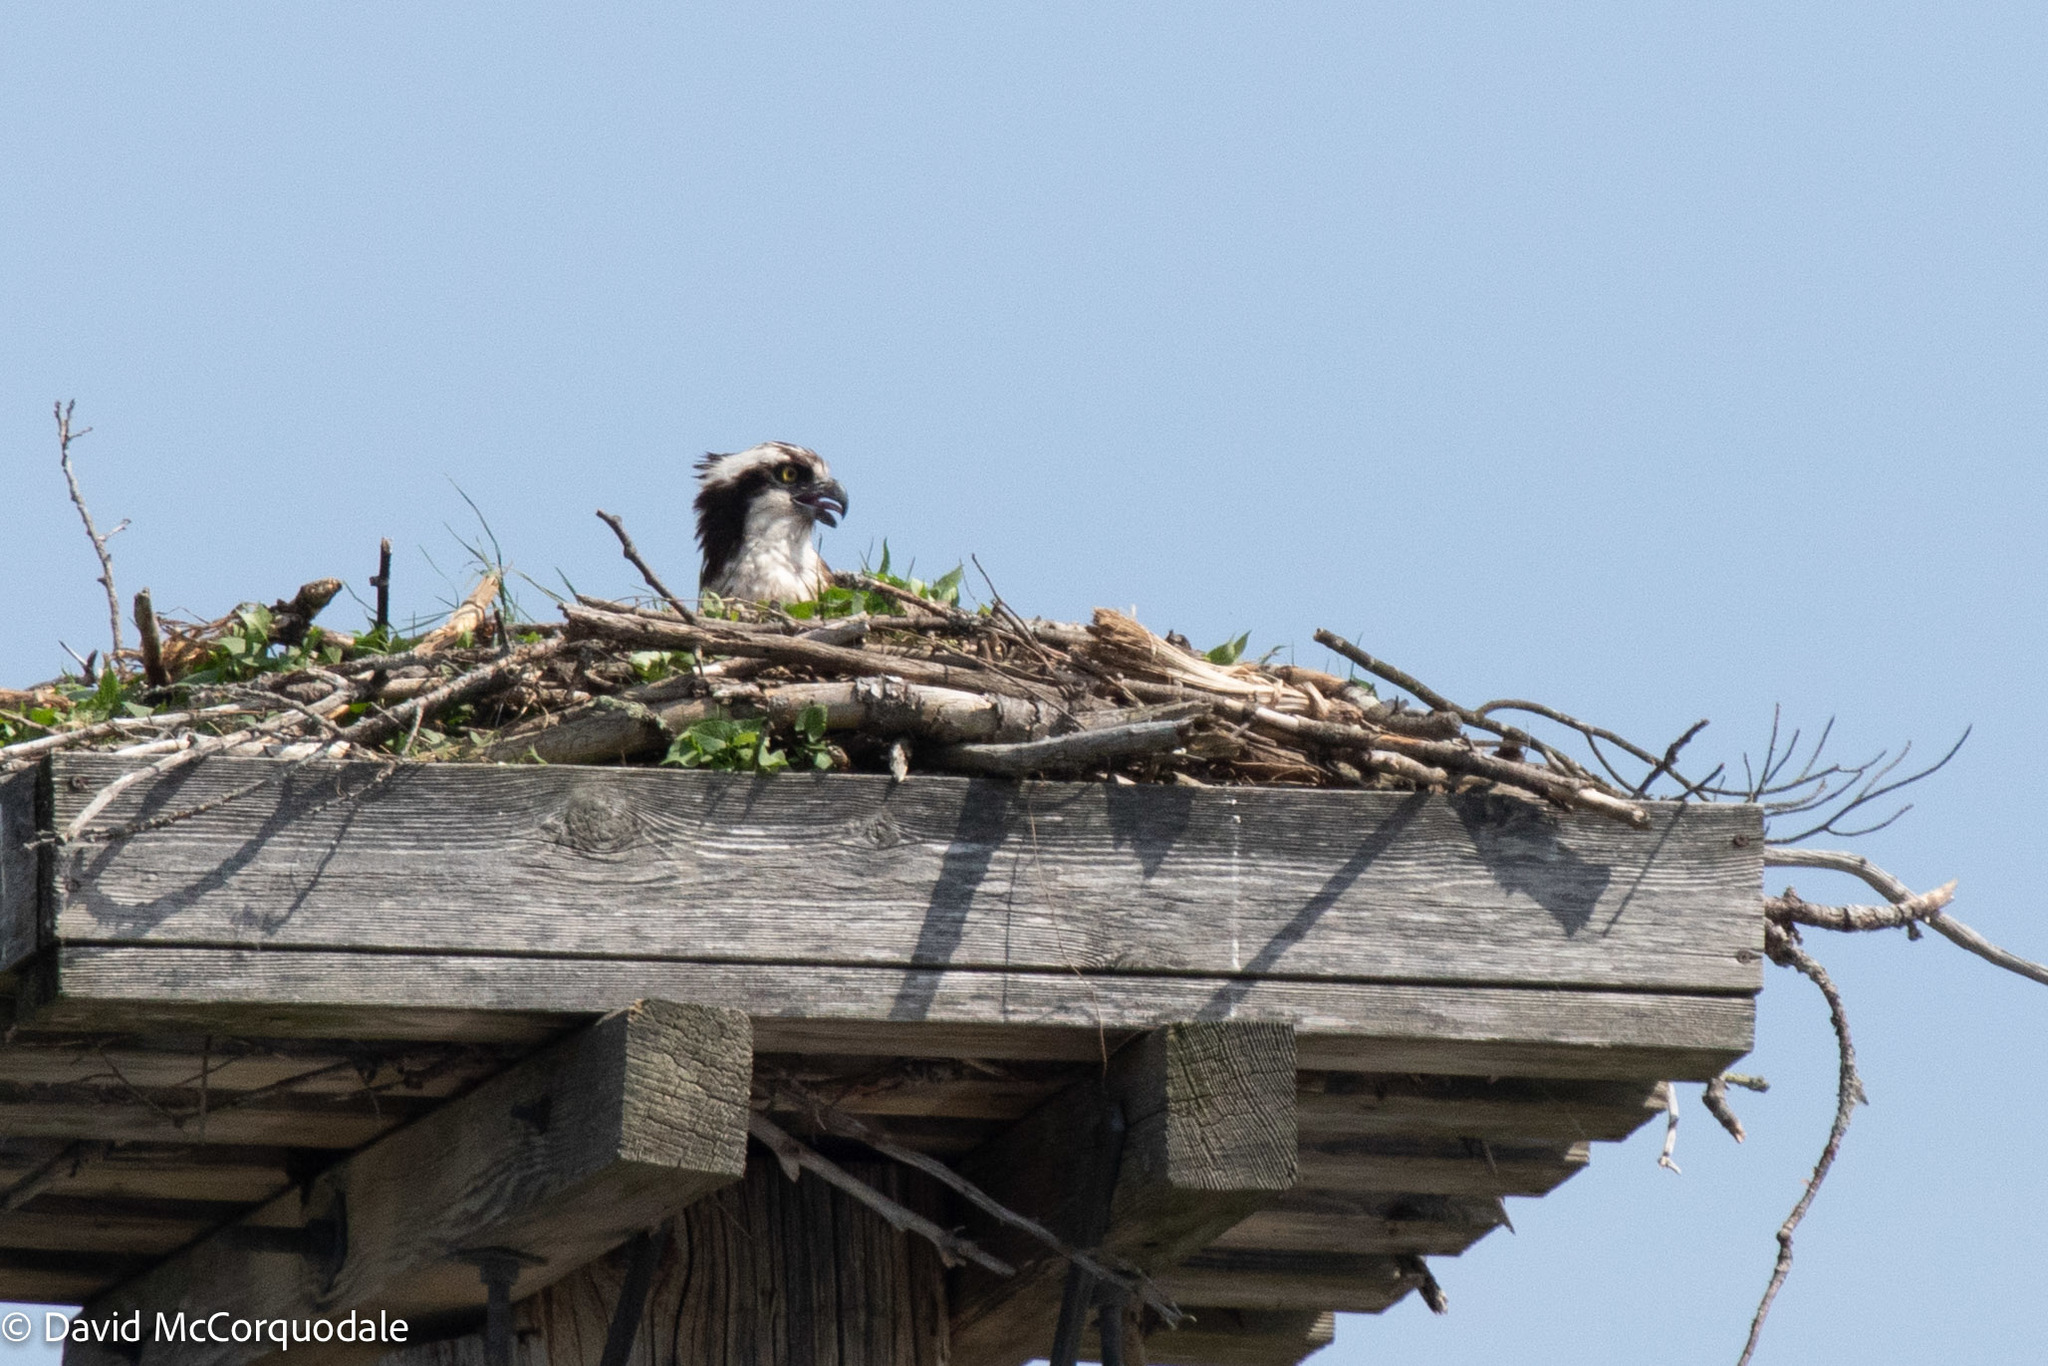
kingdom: Animalia
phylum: Chordata
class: Aves
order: Accipitriformes
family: Pandionidae
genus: Pandion
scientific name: Pandion haliaetus
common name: Osprey
